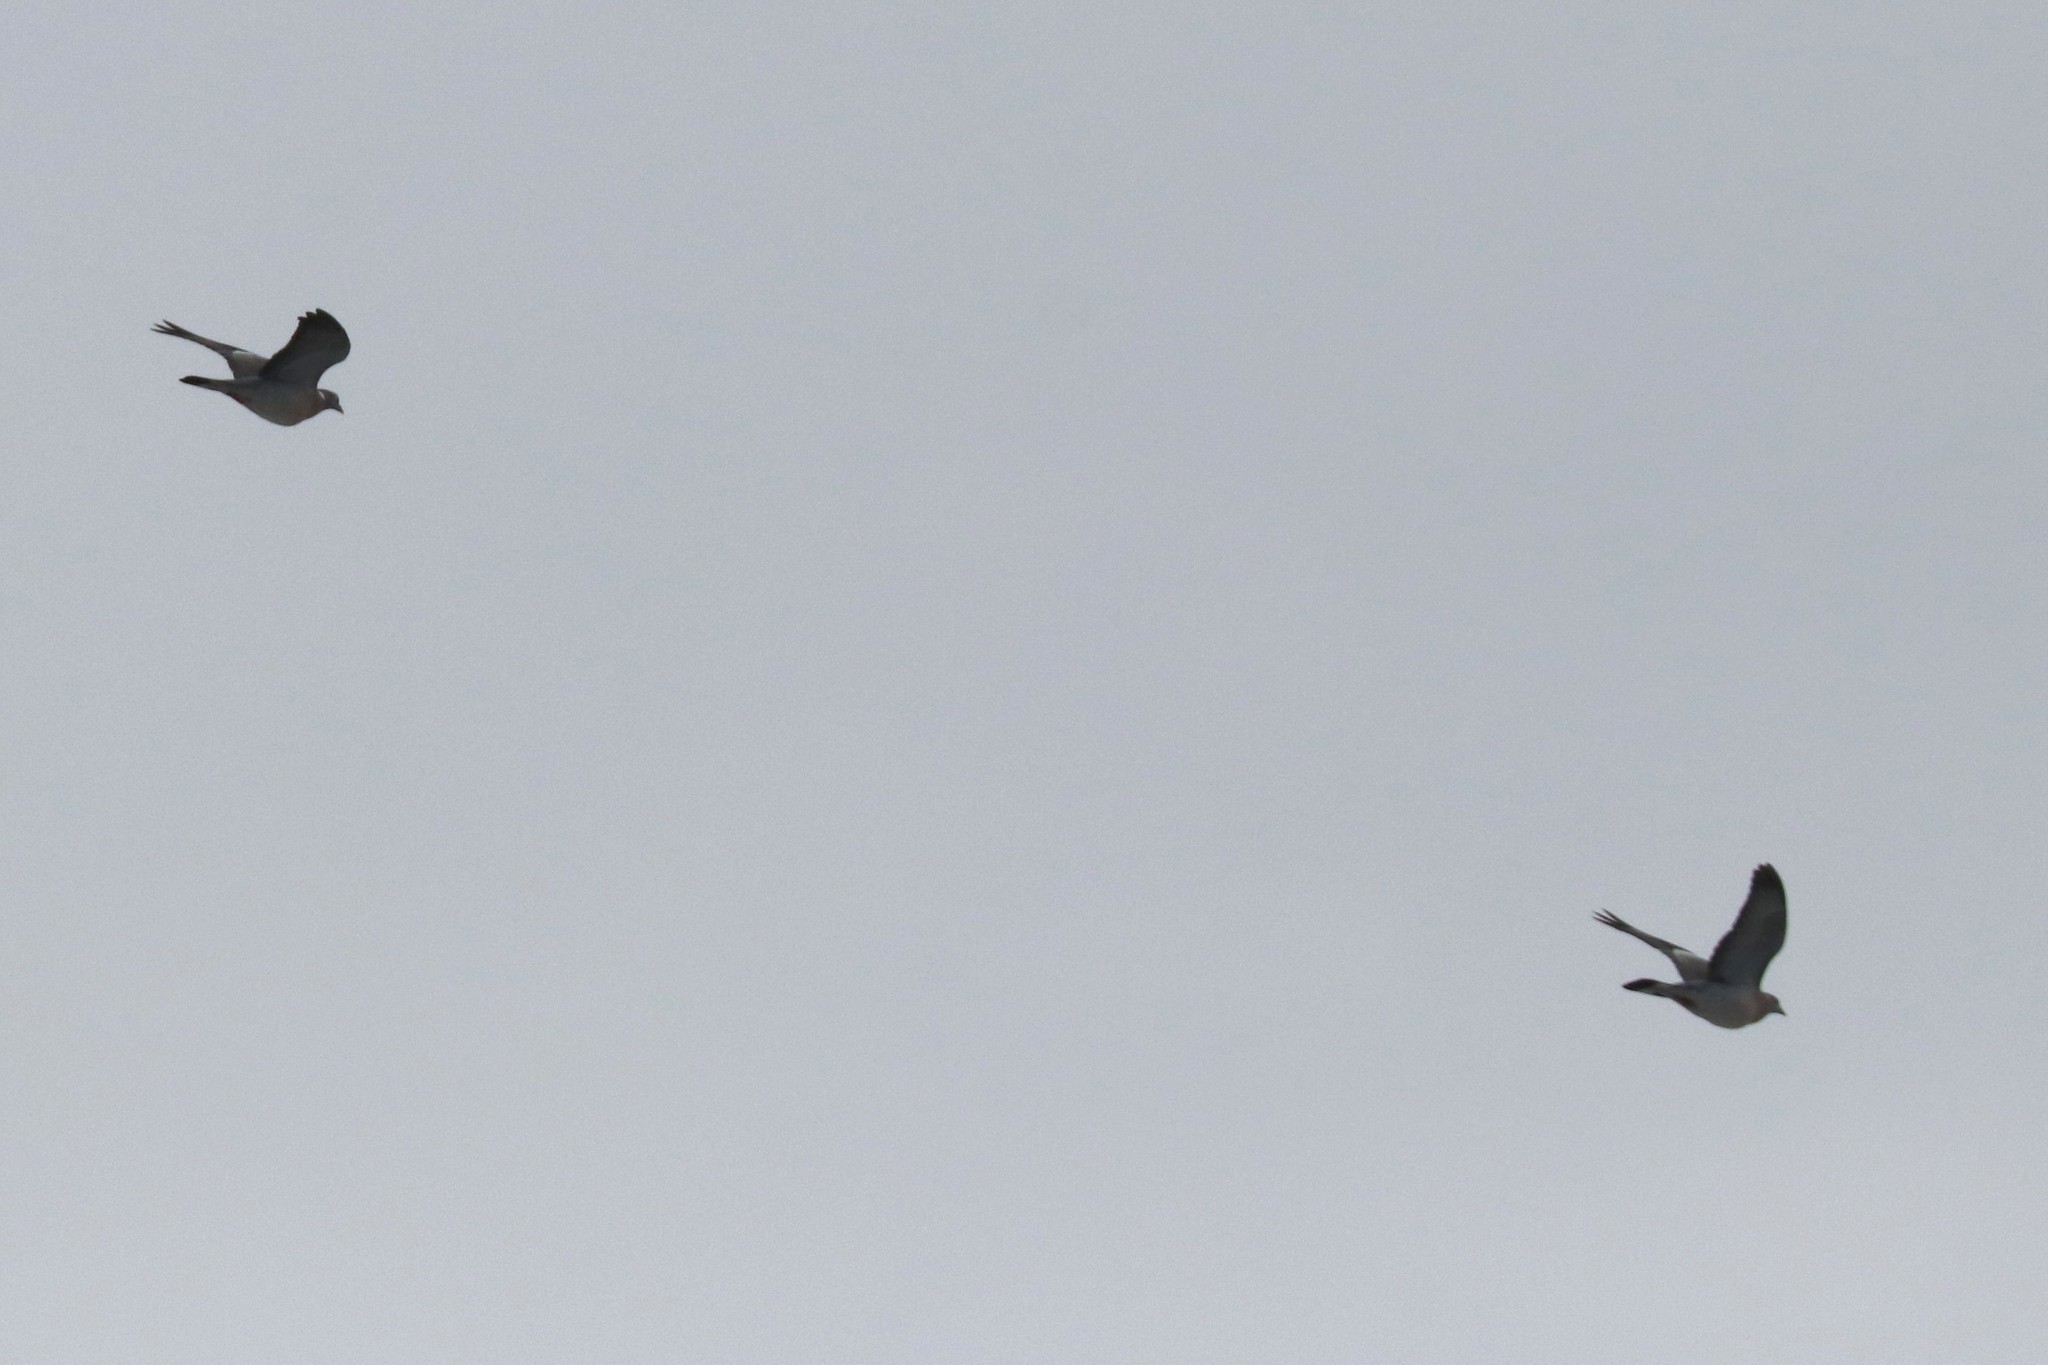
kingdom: Animalia
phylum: Chordata
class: Aves
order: Columbiformes
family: Columbidae
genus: Columba
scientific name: Columba palumbus
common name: Common wood pigeon
